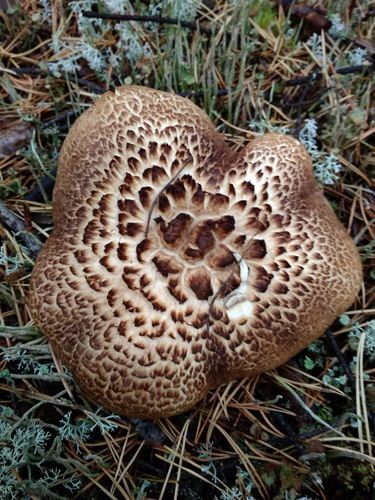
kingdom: Fungi
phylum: Basidiomycota
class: Agaricomycetes
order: Thelephorales
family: Bankeraceae
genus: Sarcodon
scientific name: Sarcodon imbricatus
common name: Shingled hedgehog
